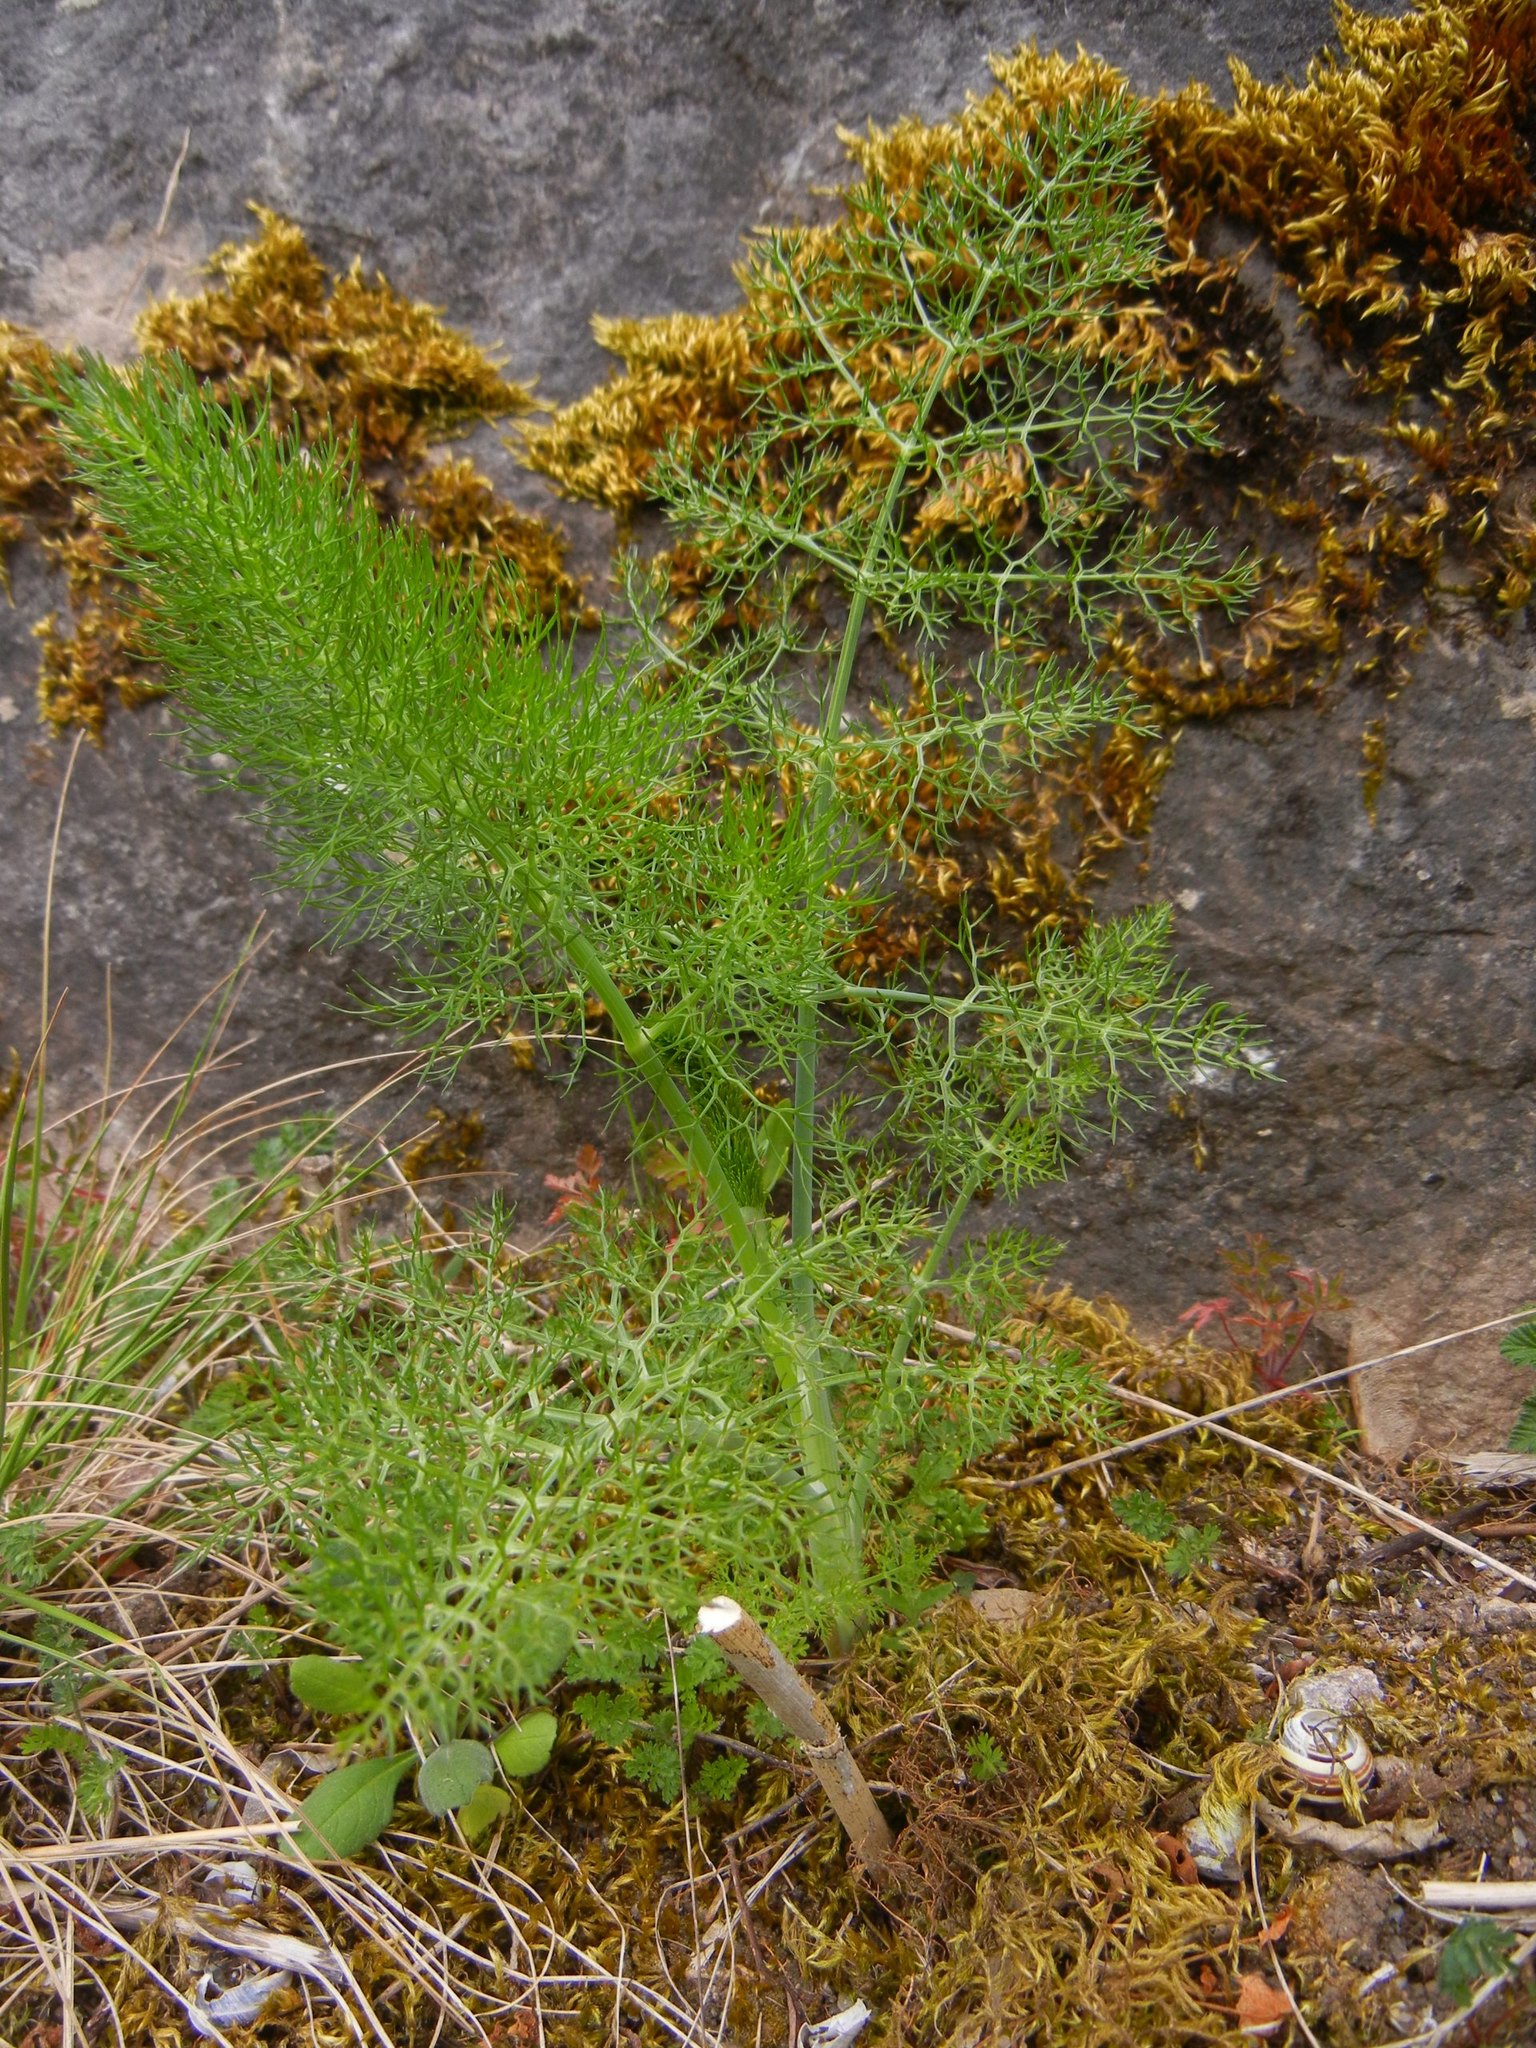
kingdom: Plantae
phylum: Tracheophyta
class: Magnoliopsida
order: Apiales
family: Apiaceae
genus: Foeniculum
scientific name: Foeniculum vulgare
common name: Fennel
